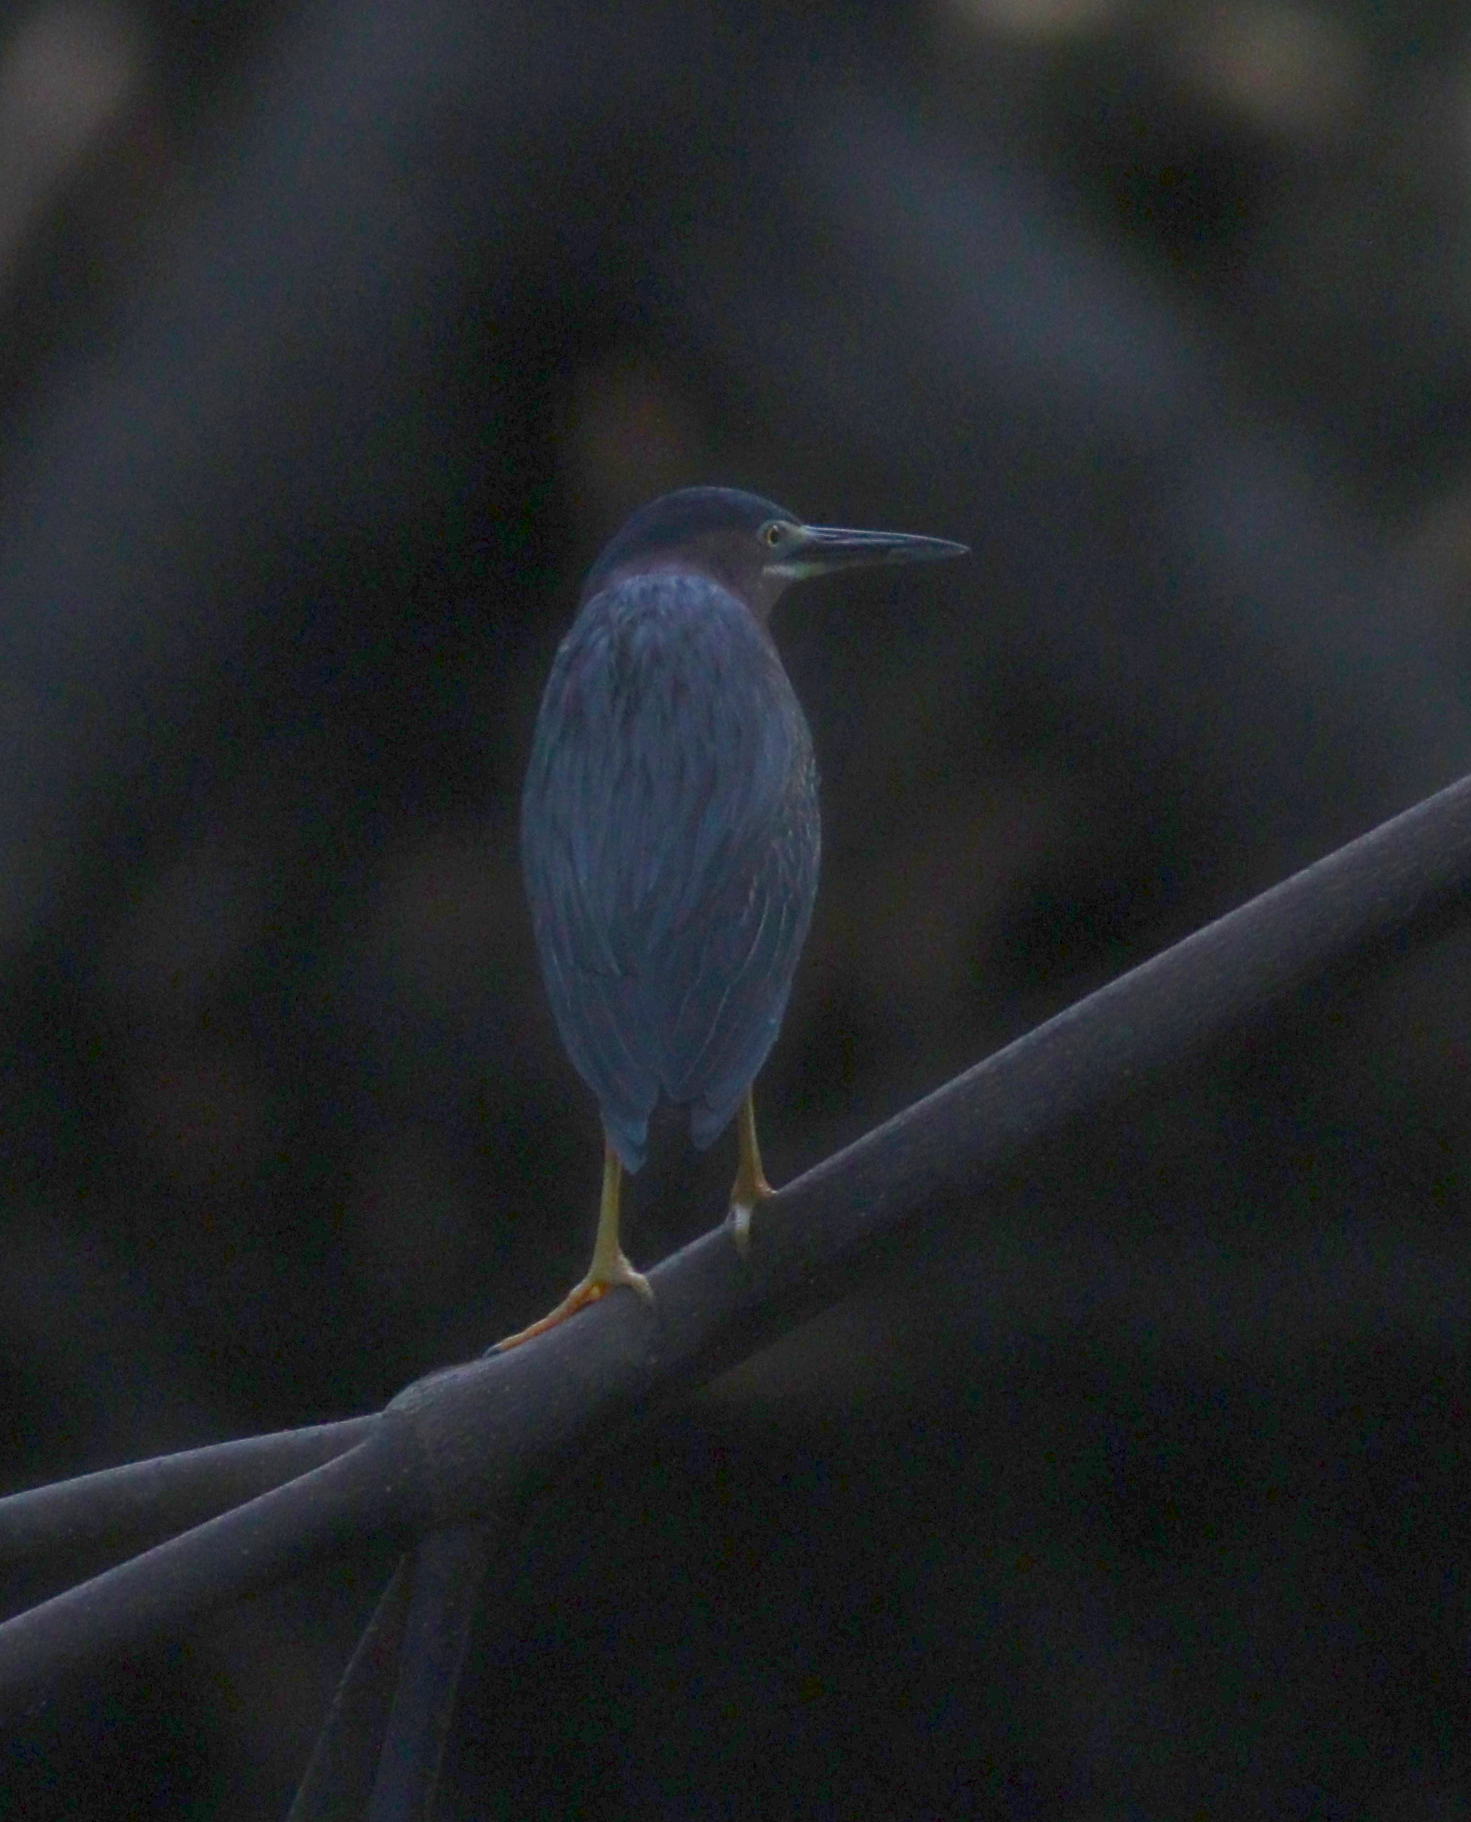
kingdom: Animalia
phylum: Chordata
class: Aves
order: Pelecaniformes
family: Ardeidae
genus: Butorides
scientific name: Butorides virescens
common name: Green heron
